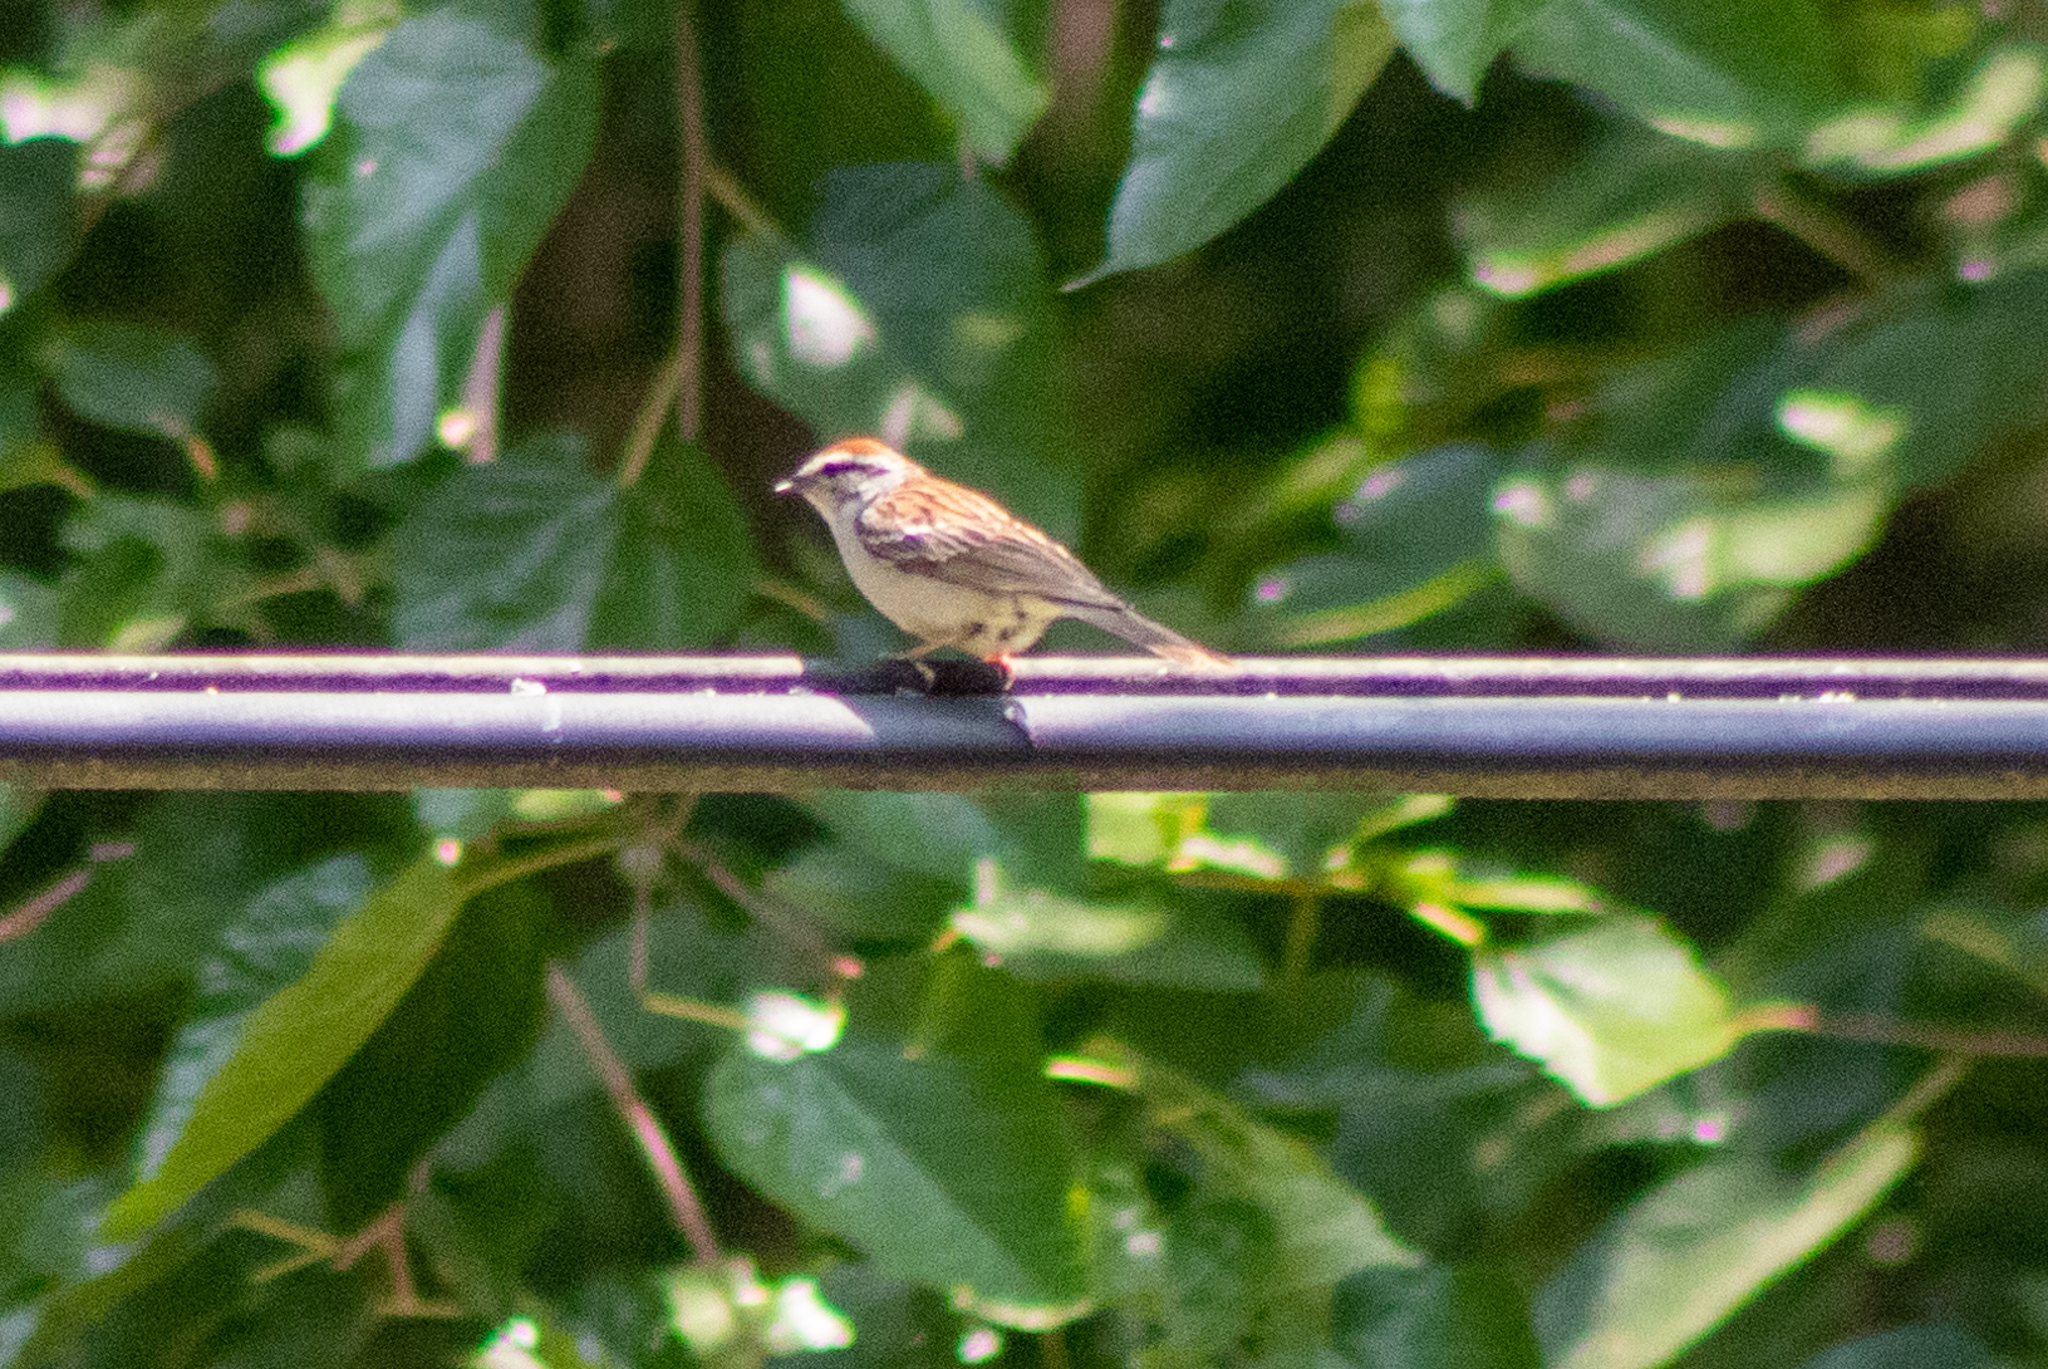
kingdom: Animalia
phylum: Chordata
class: Aves
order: Passeriformes
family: Passerellidae
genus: Spizella
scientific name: Spizella passerina
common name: Chipping sparrow
